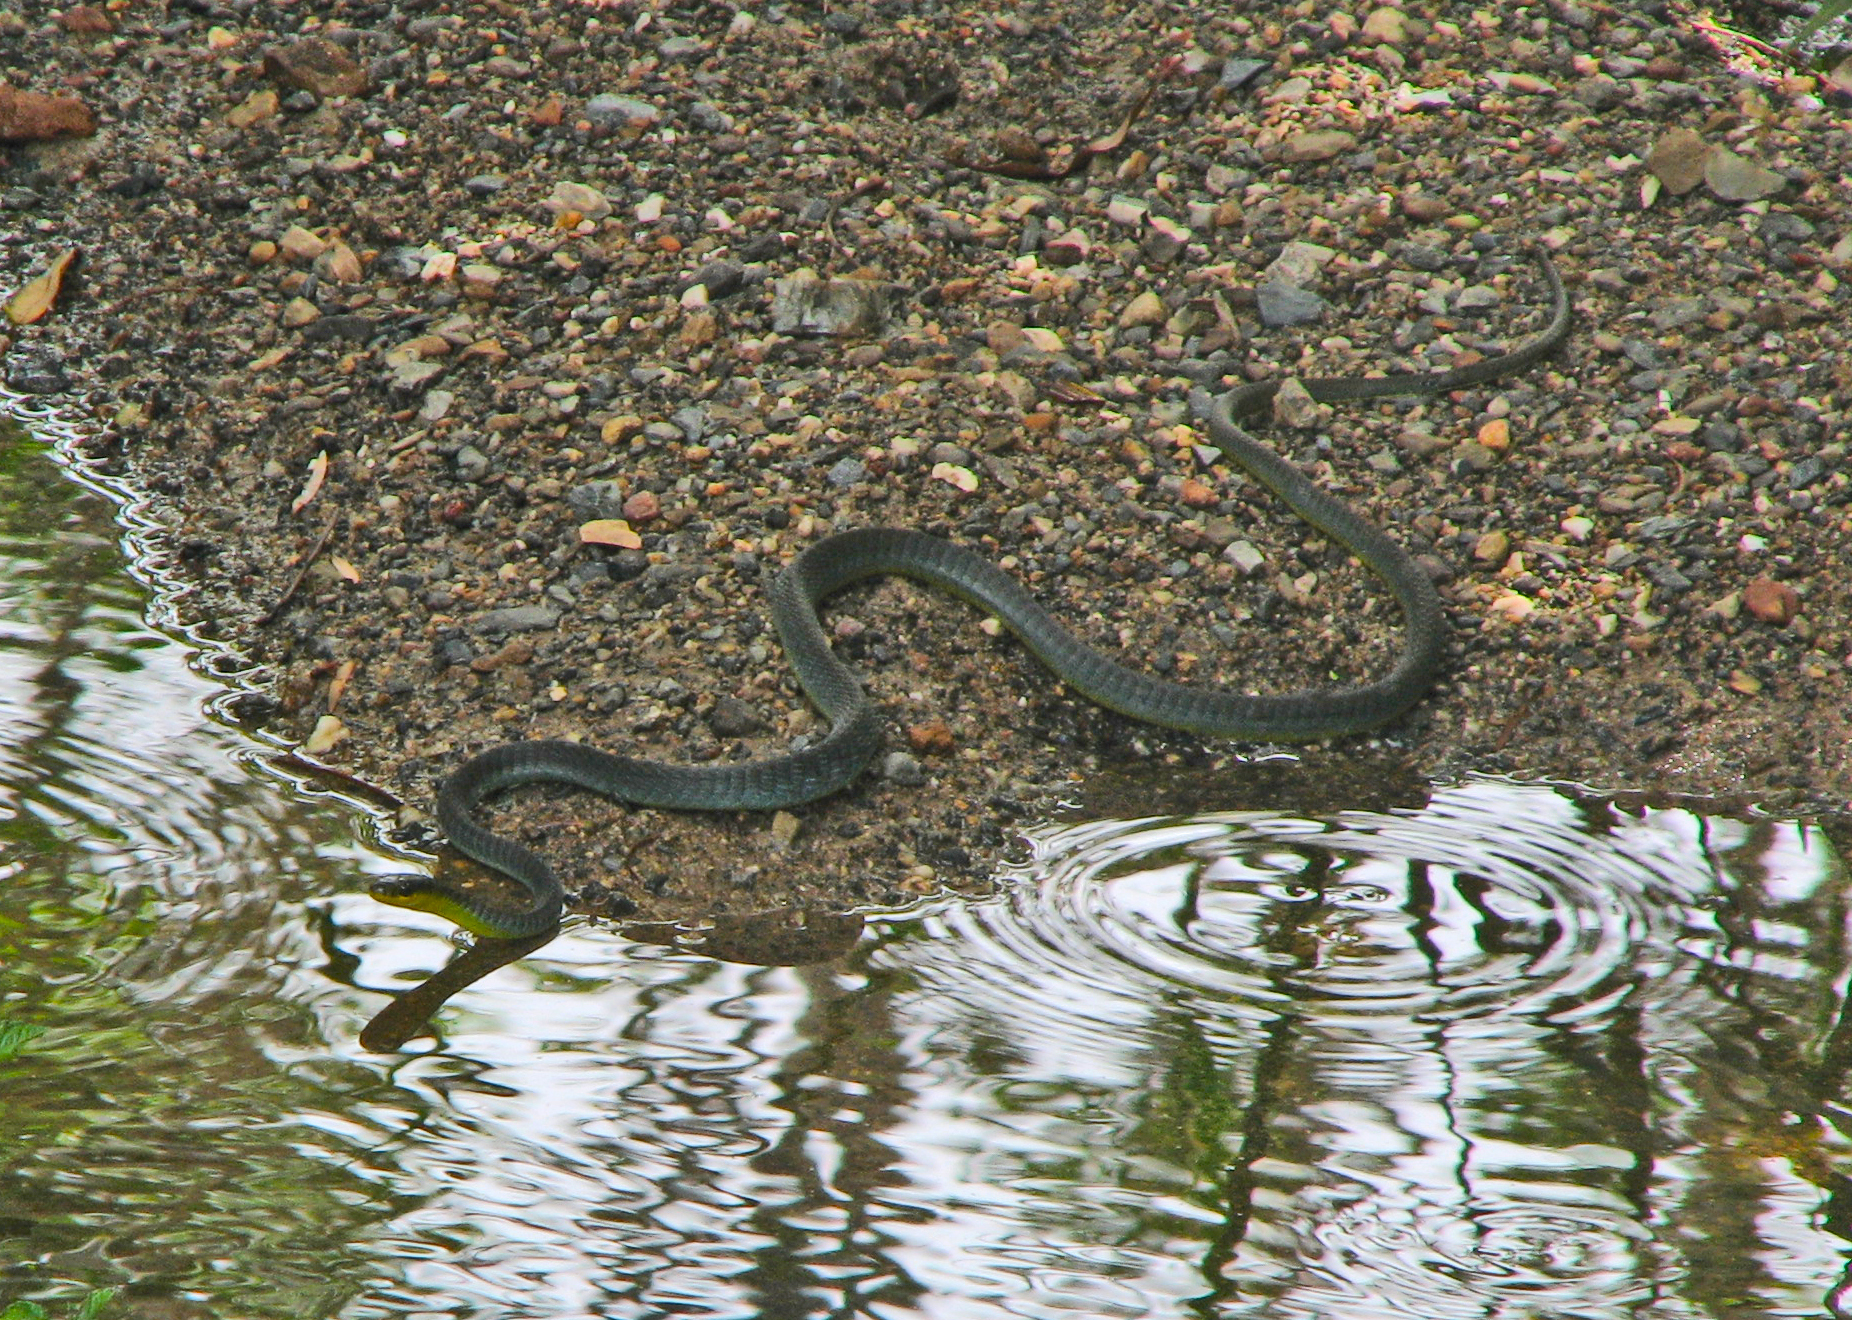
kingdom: Animalia
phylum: Chordata
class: Squamata
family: Colubridae
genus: Dendrelaphis
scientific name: Dendrelaphis punctulatus
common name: Common tree snake
